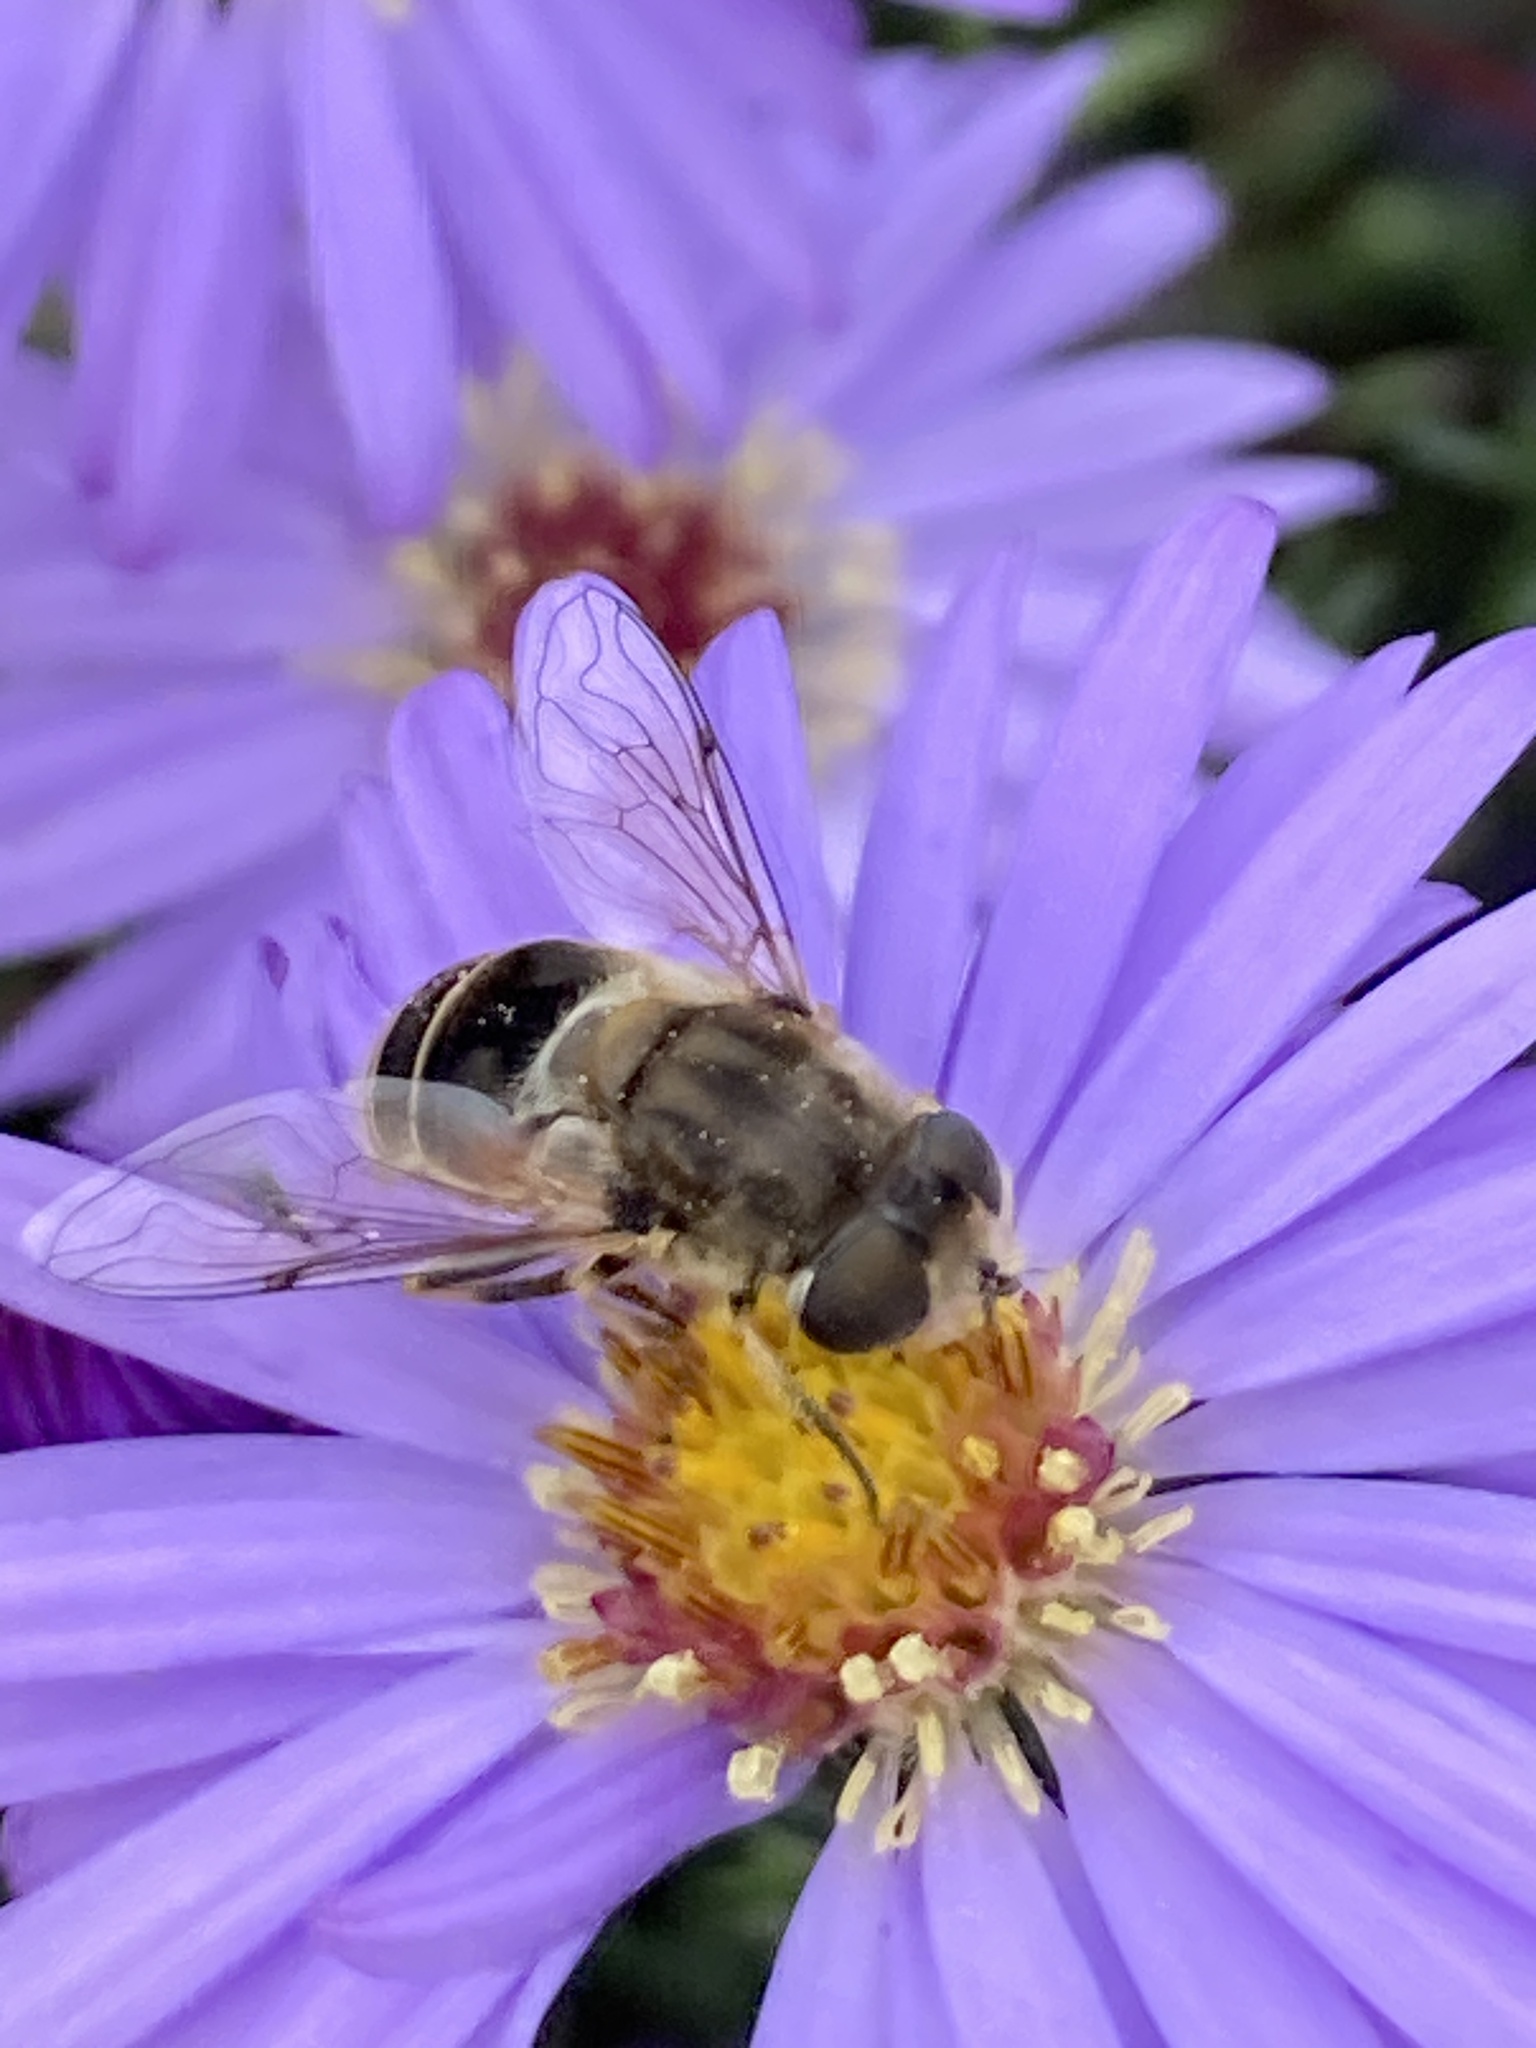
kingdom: Animalia
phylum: Arthropoda
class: Insecta
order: Diptera
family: Syrphidae
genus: Eristalis
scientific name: Eristalis arbustorum
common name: Hover fly
